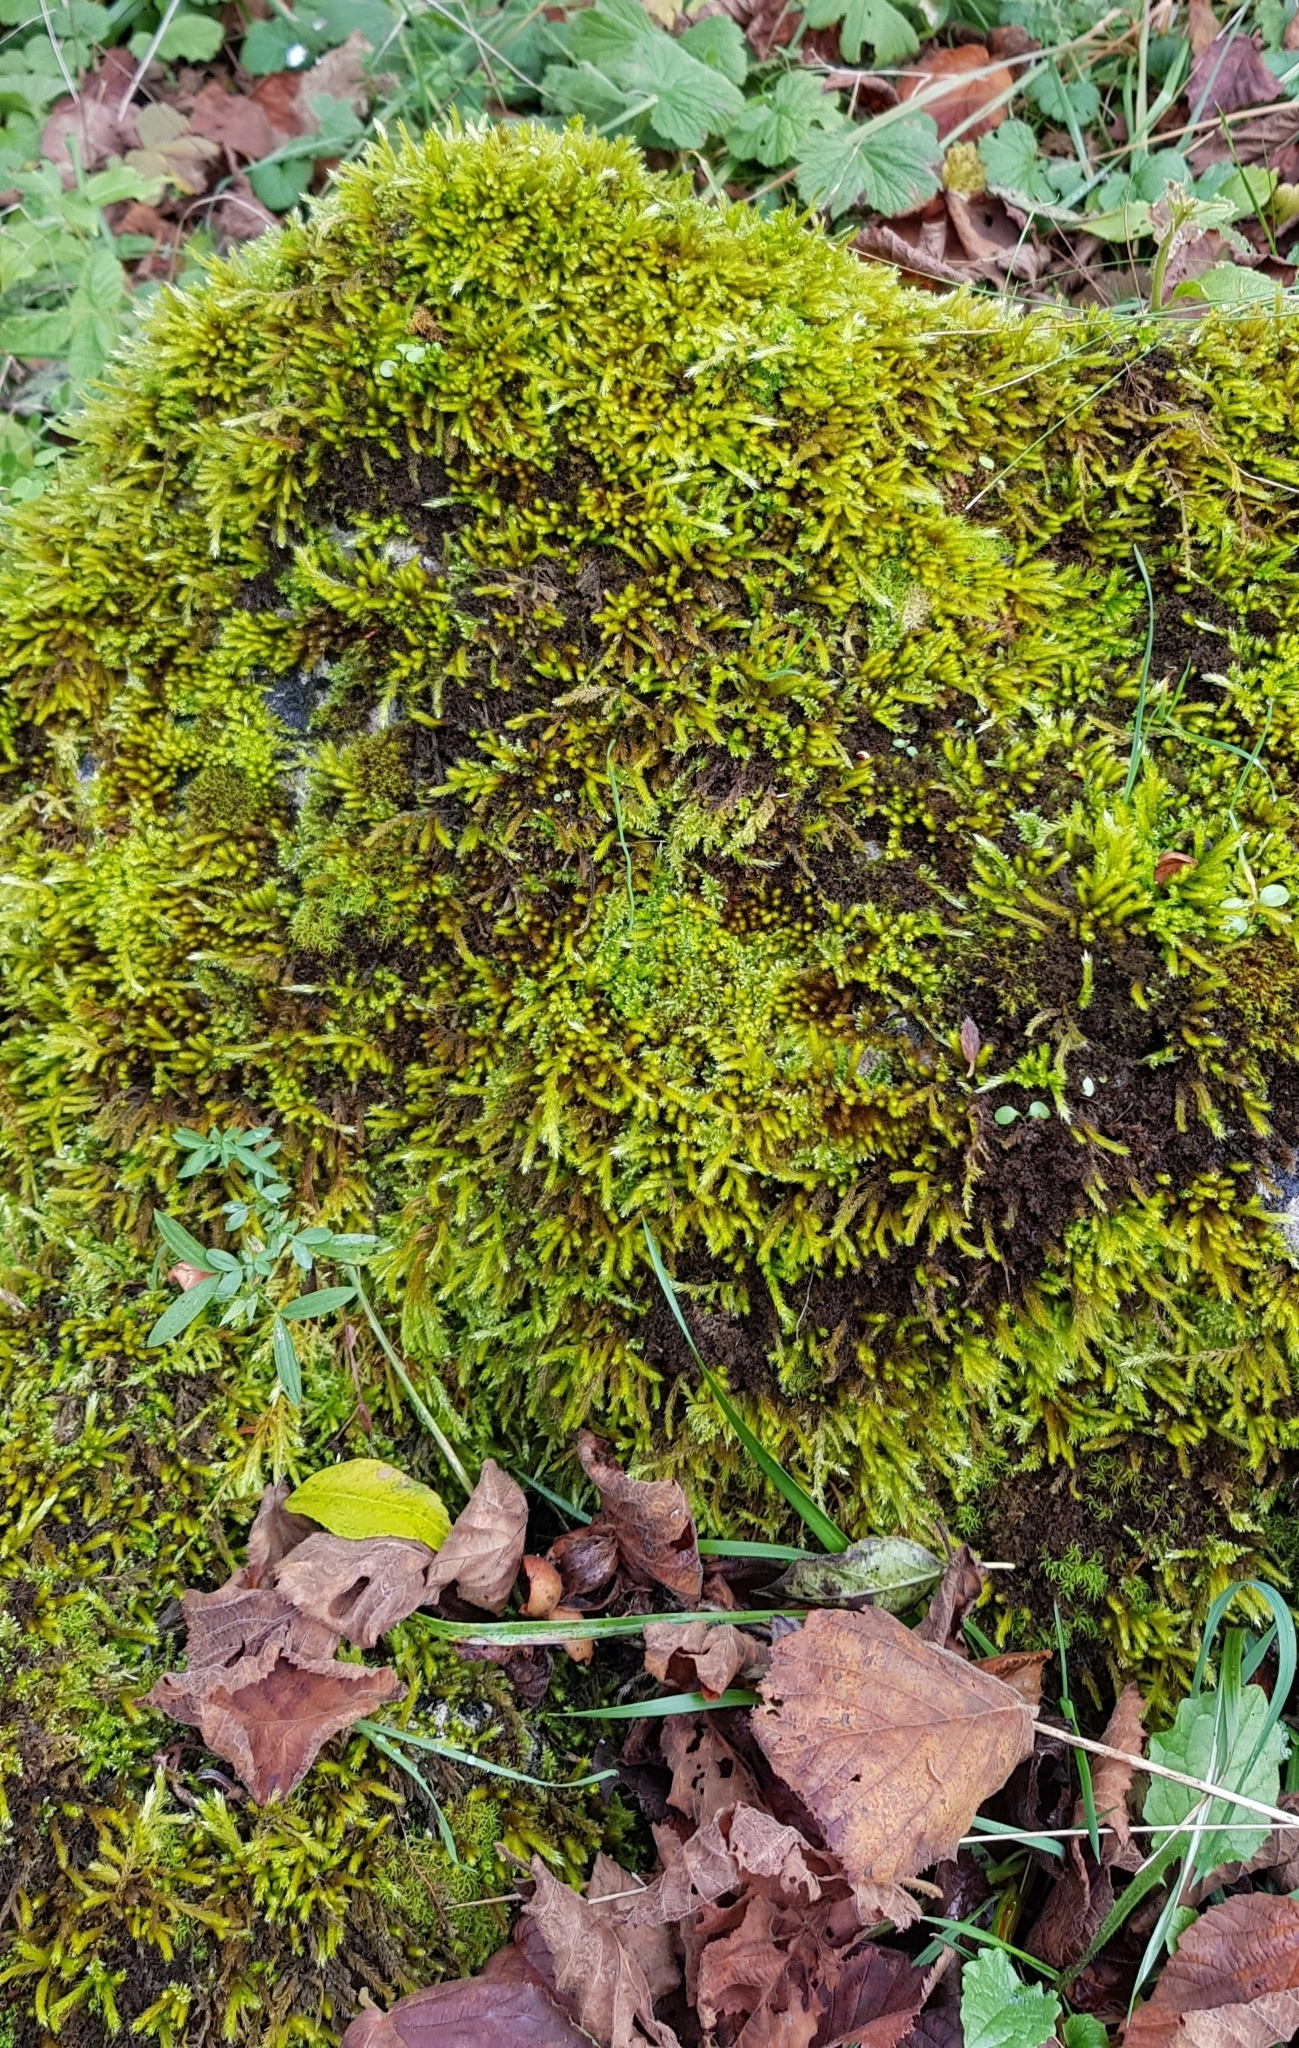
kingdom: Plantae
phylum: Bryophyta
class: Bryopsida
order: Hypnales
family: Brachytheciaceae
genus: Homalothecium
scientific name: Homalothecium lutescens
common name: Yellow feather-moss
